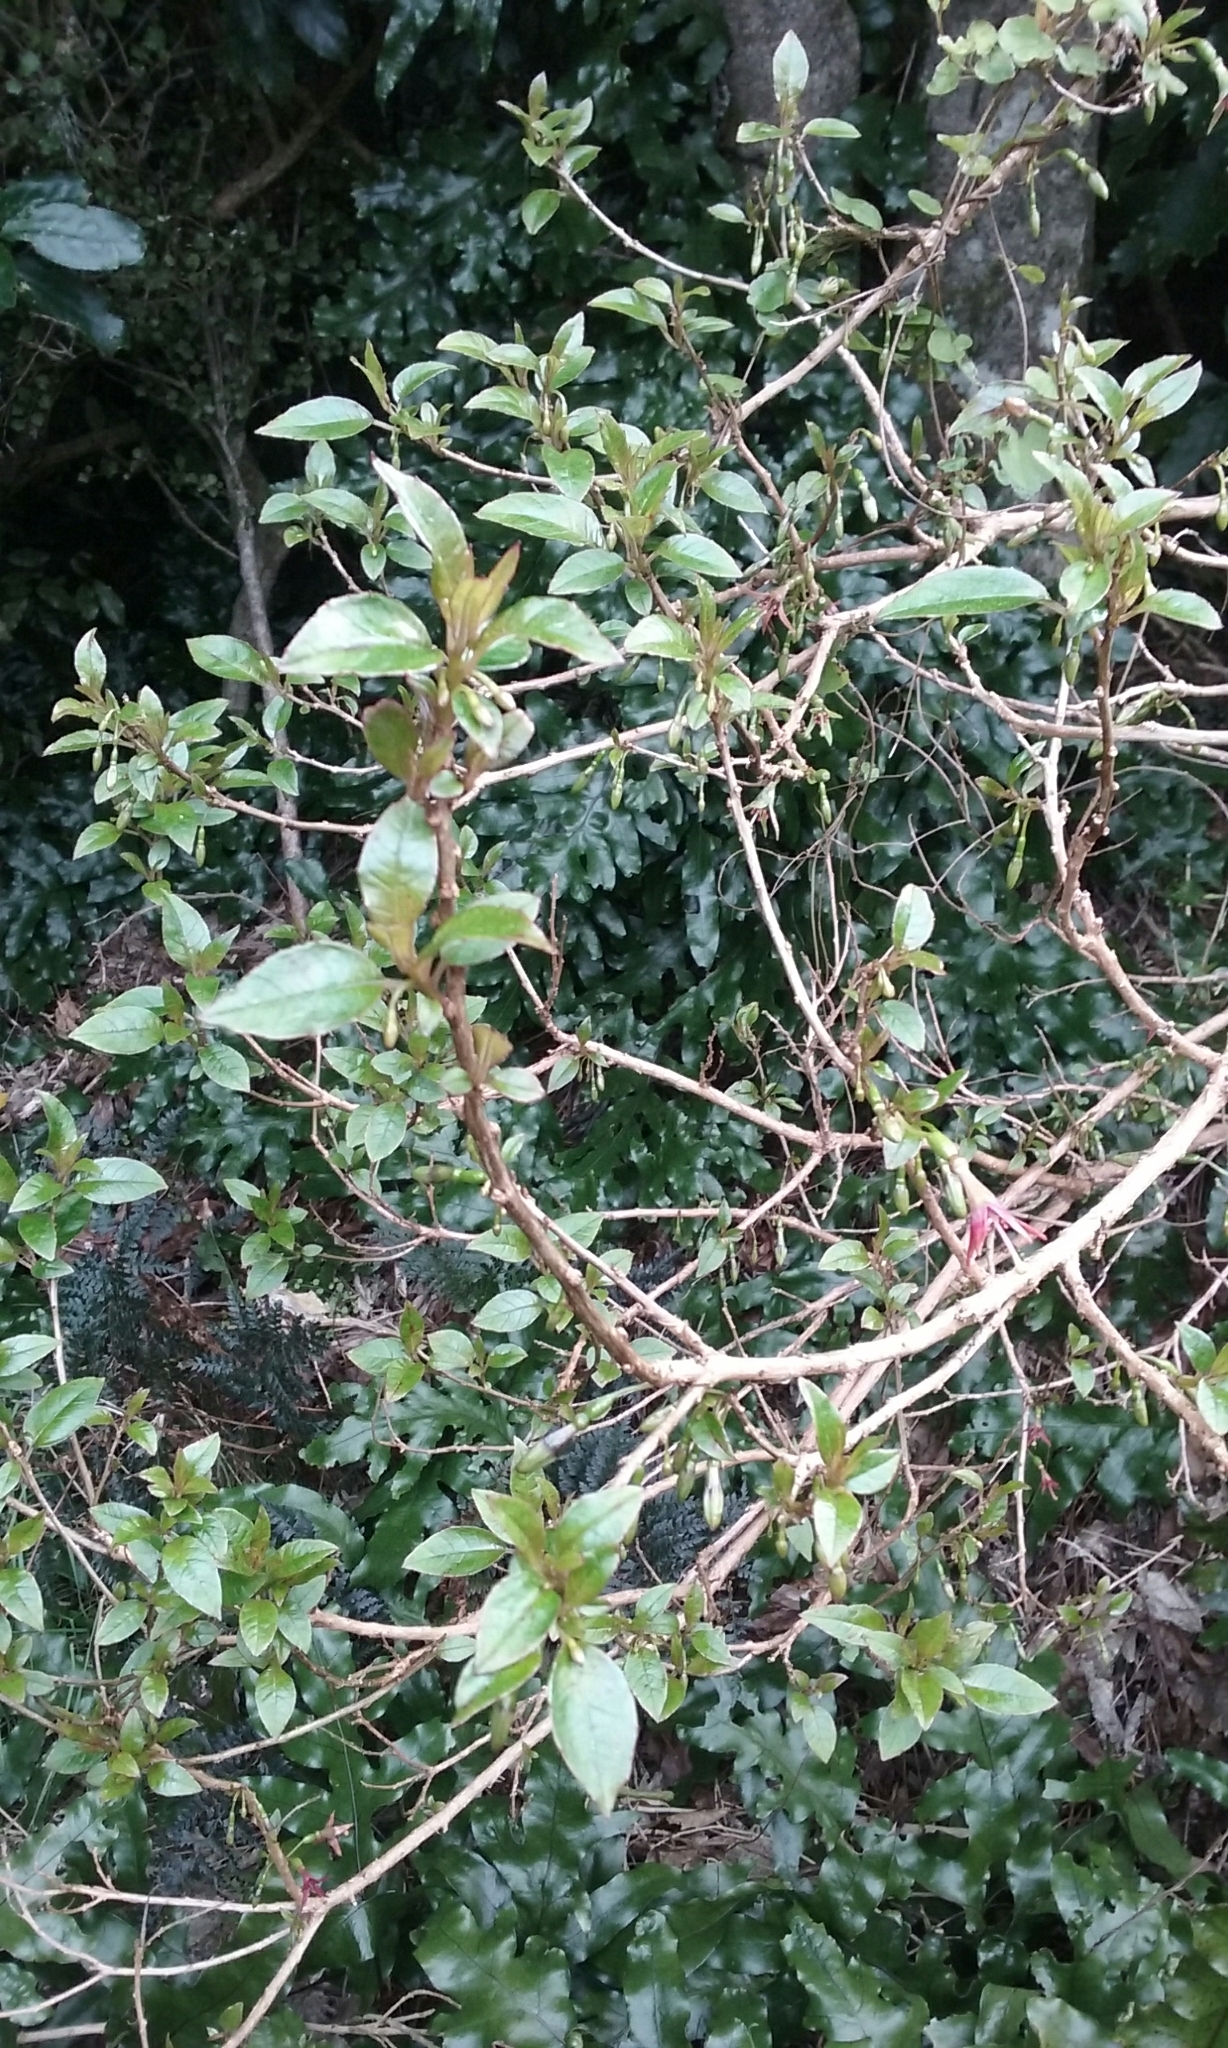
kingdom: Plantae
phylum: Tracheophyta
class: Magnoliopsida
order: Myrtales
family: Onagraceae
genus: Fuchsia
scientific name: Fuchsia colensoi
